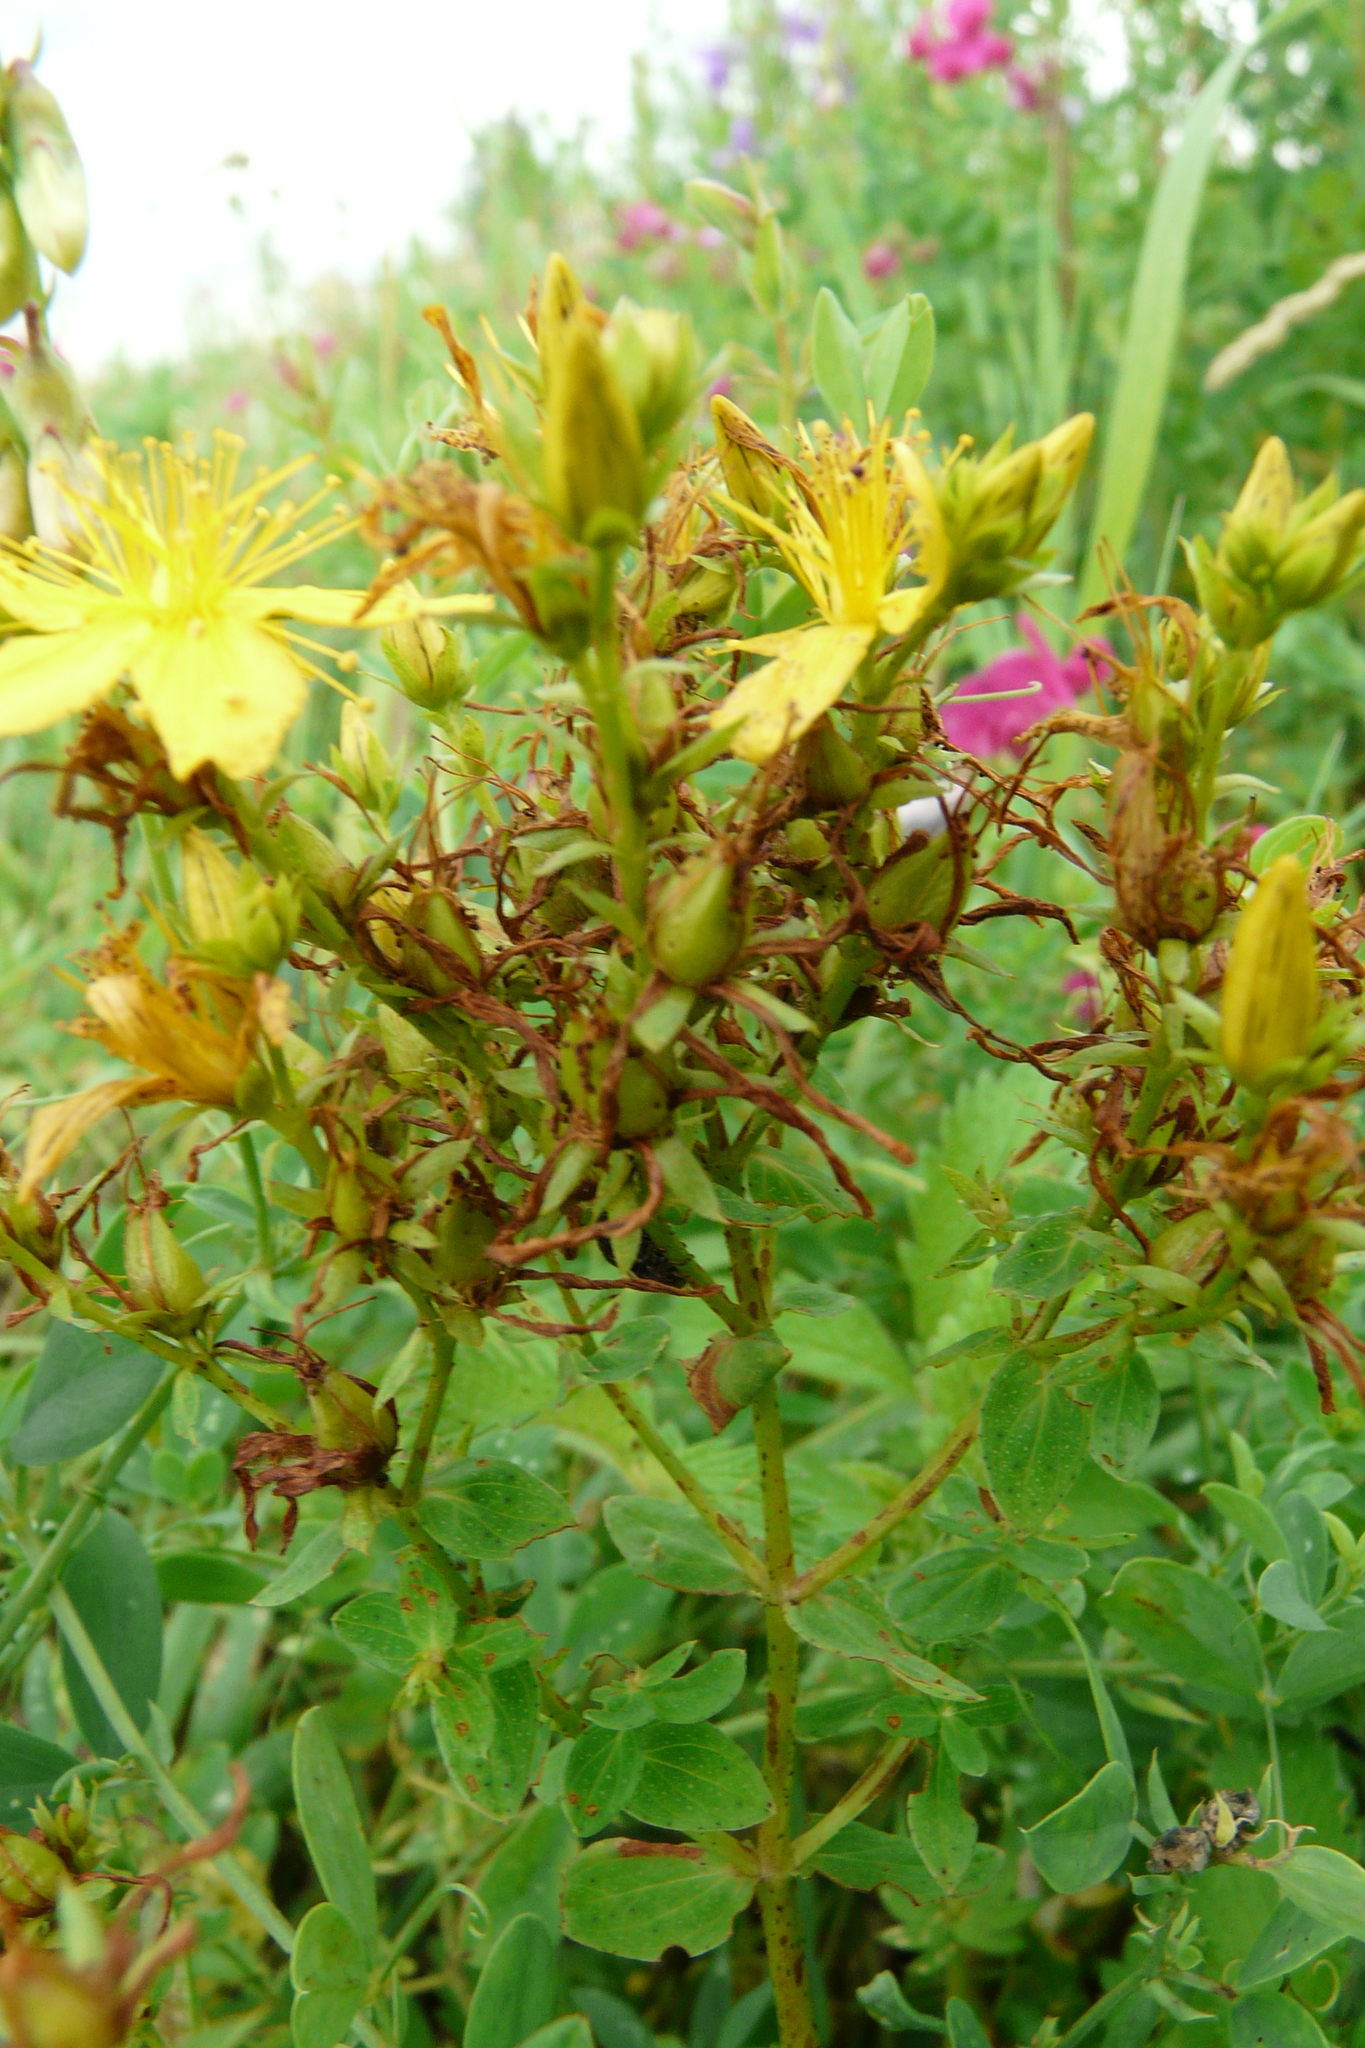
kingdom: Plantae
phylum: Tracheophyta
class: Magnoliopsida
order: Malpighiales
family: Hypericaceae
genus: Hypericum
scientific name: Hypericum perforatum
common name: Common st. johnswort
